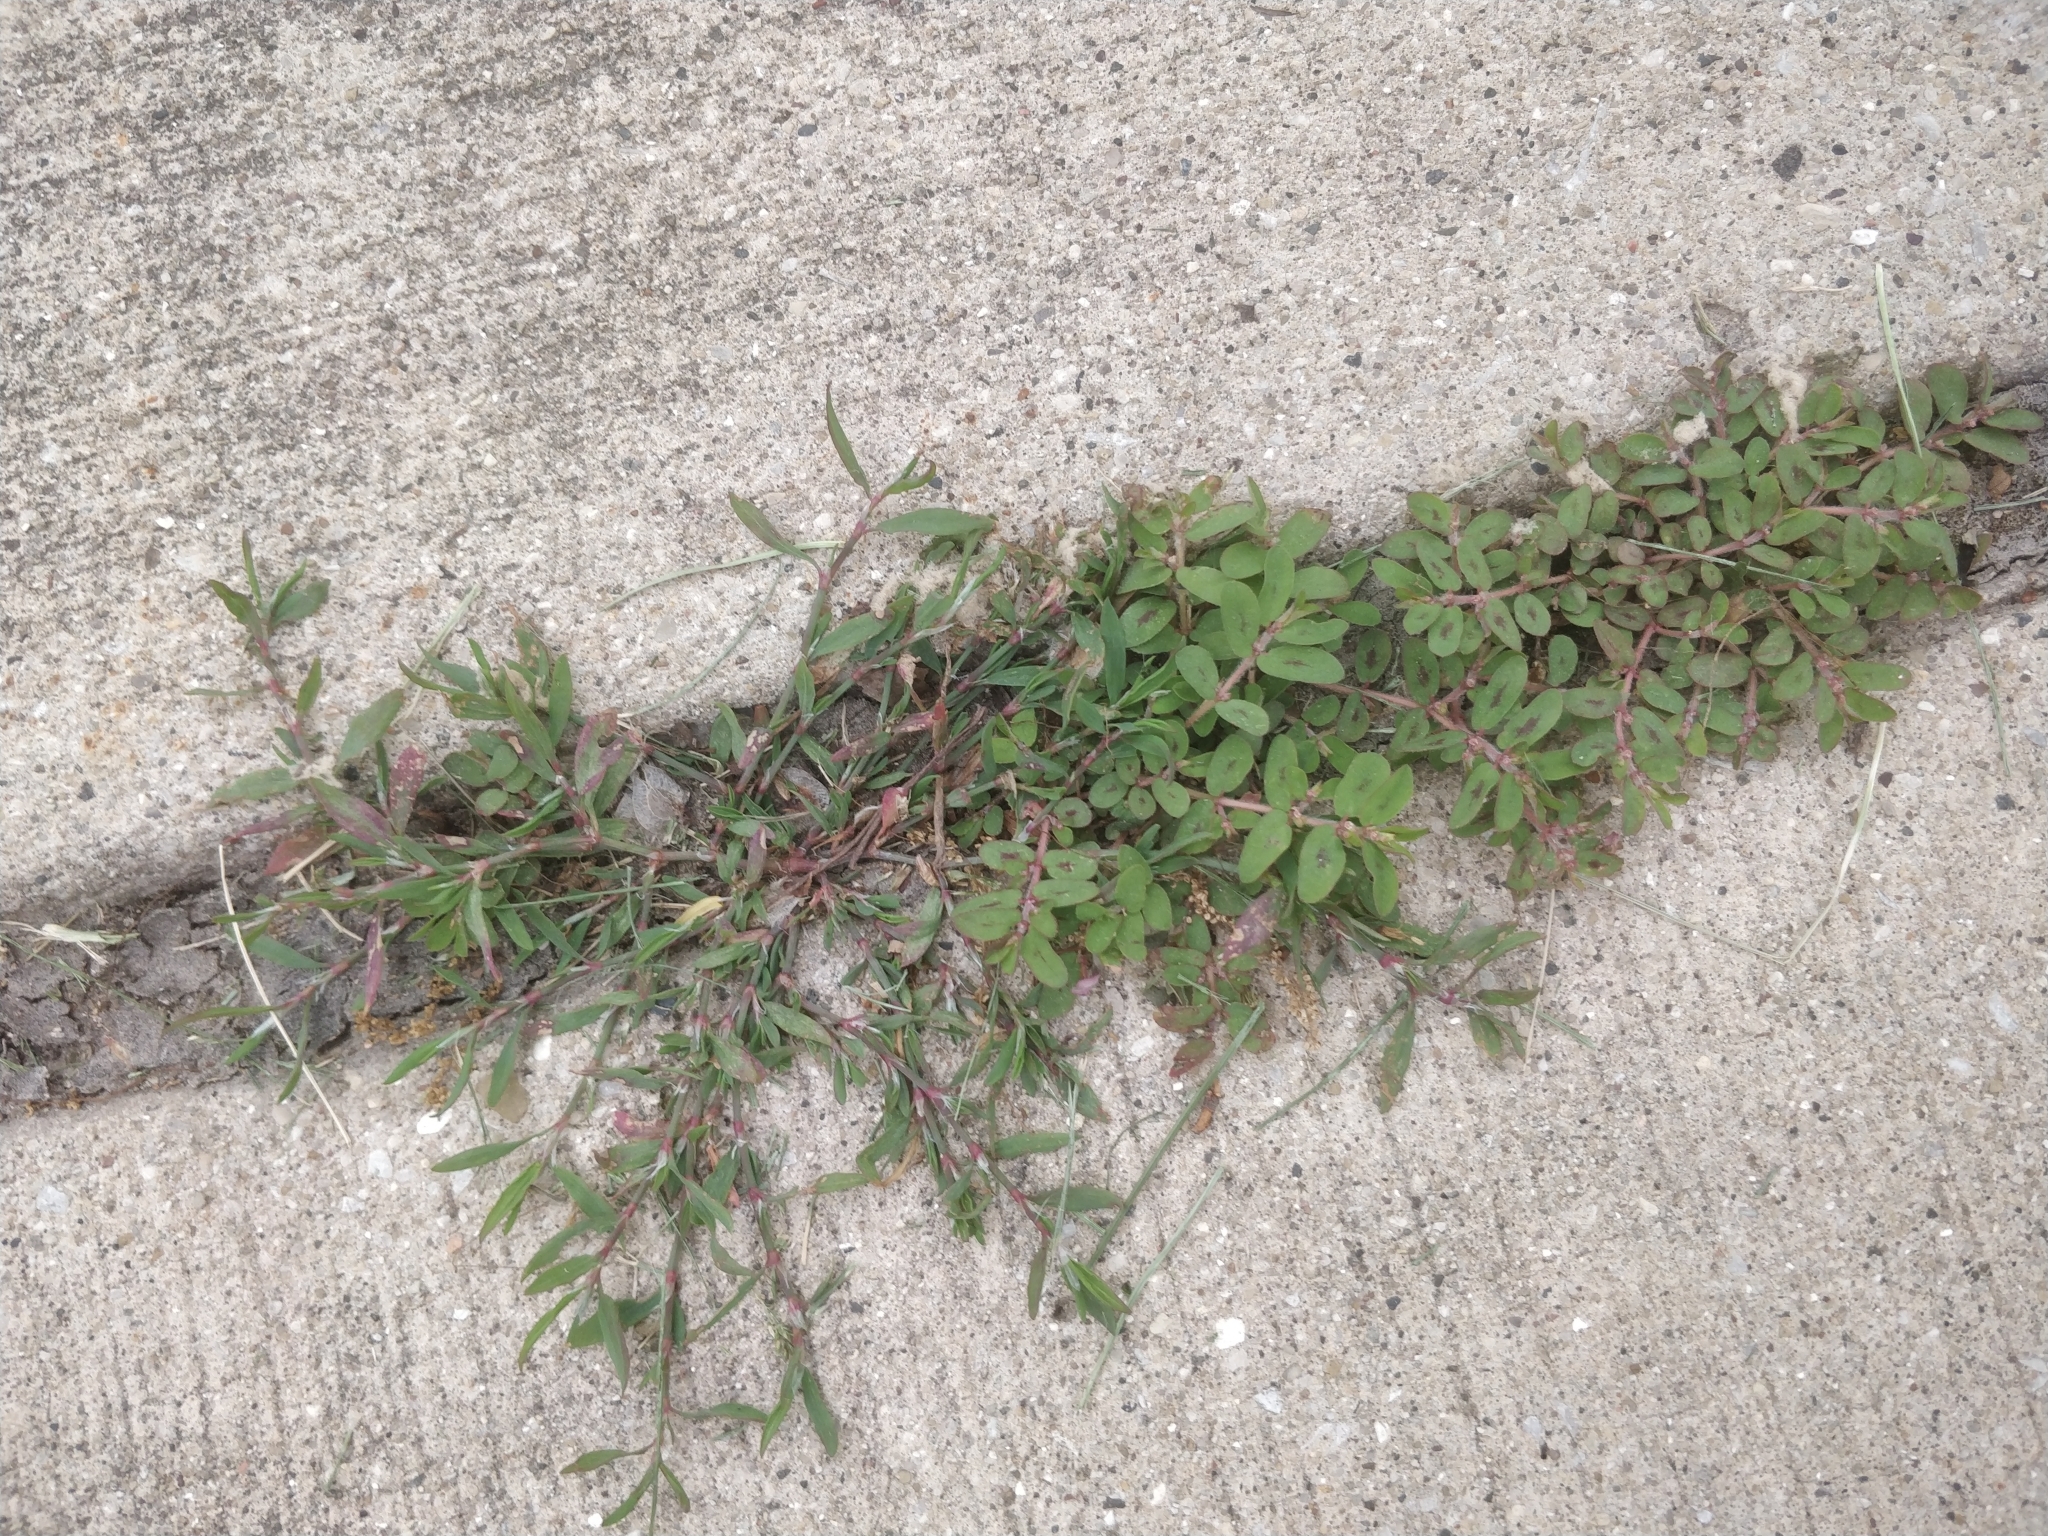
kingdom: Plantae
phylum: Tracheophyta
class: Magnoliopsida
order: Malpighiales
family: Euphorbiaceae
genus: Euphorbia
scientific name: Euphorbia maculata
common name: Spotted spurge
